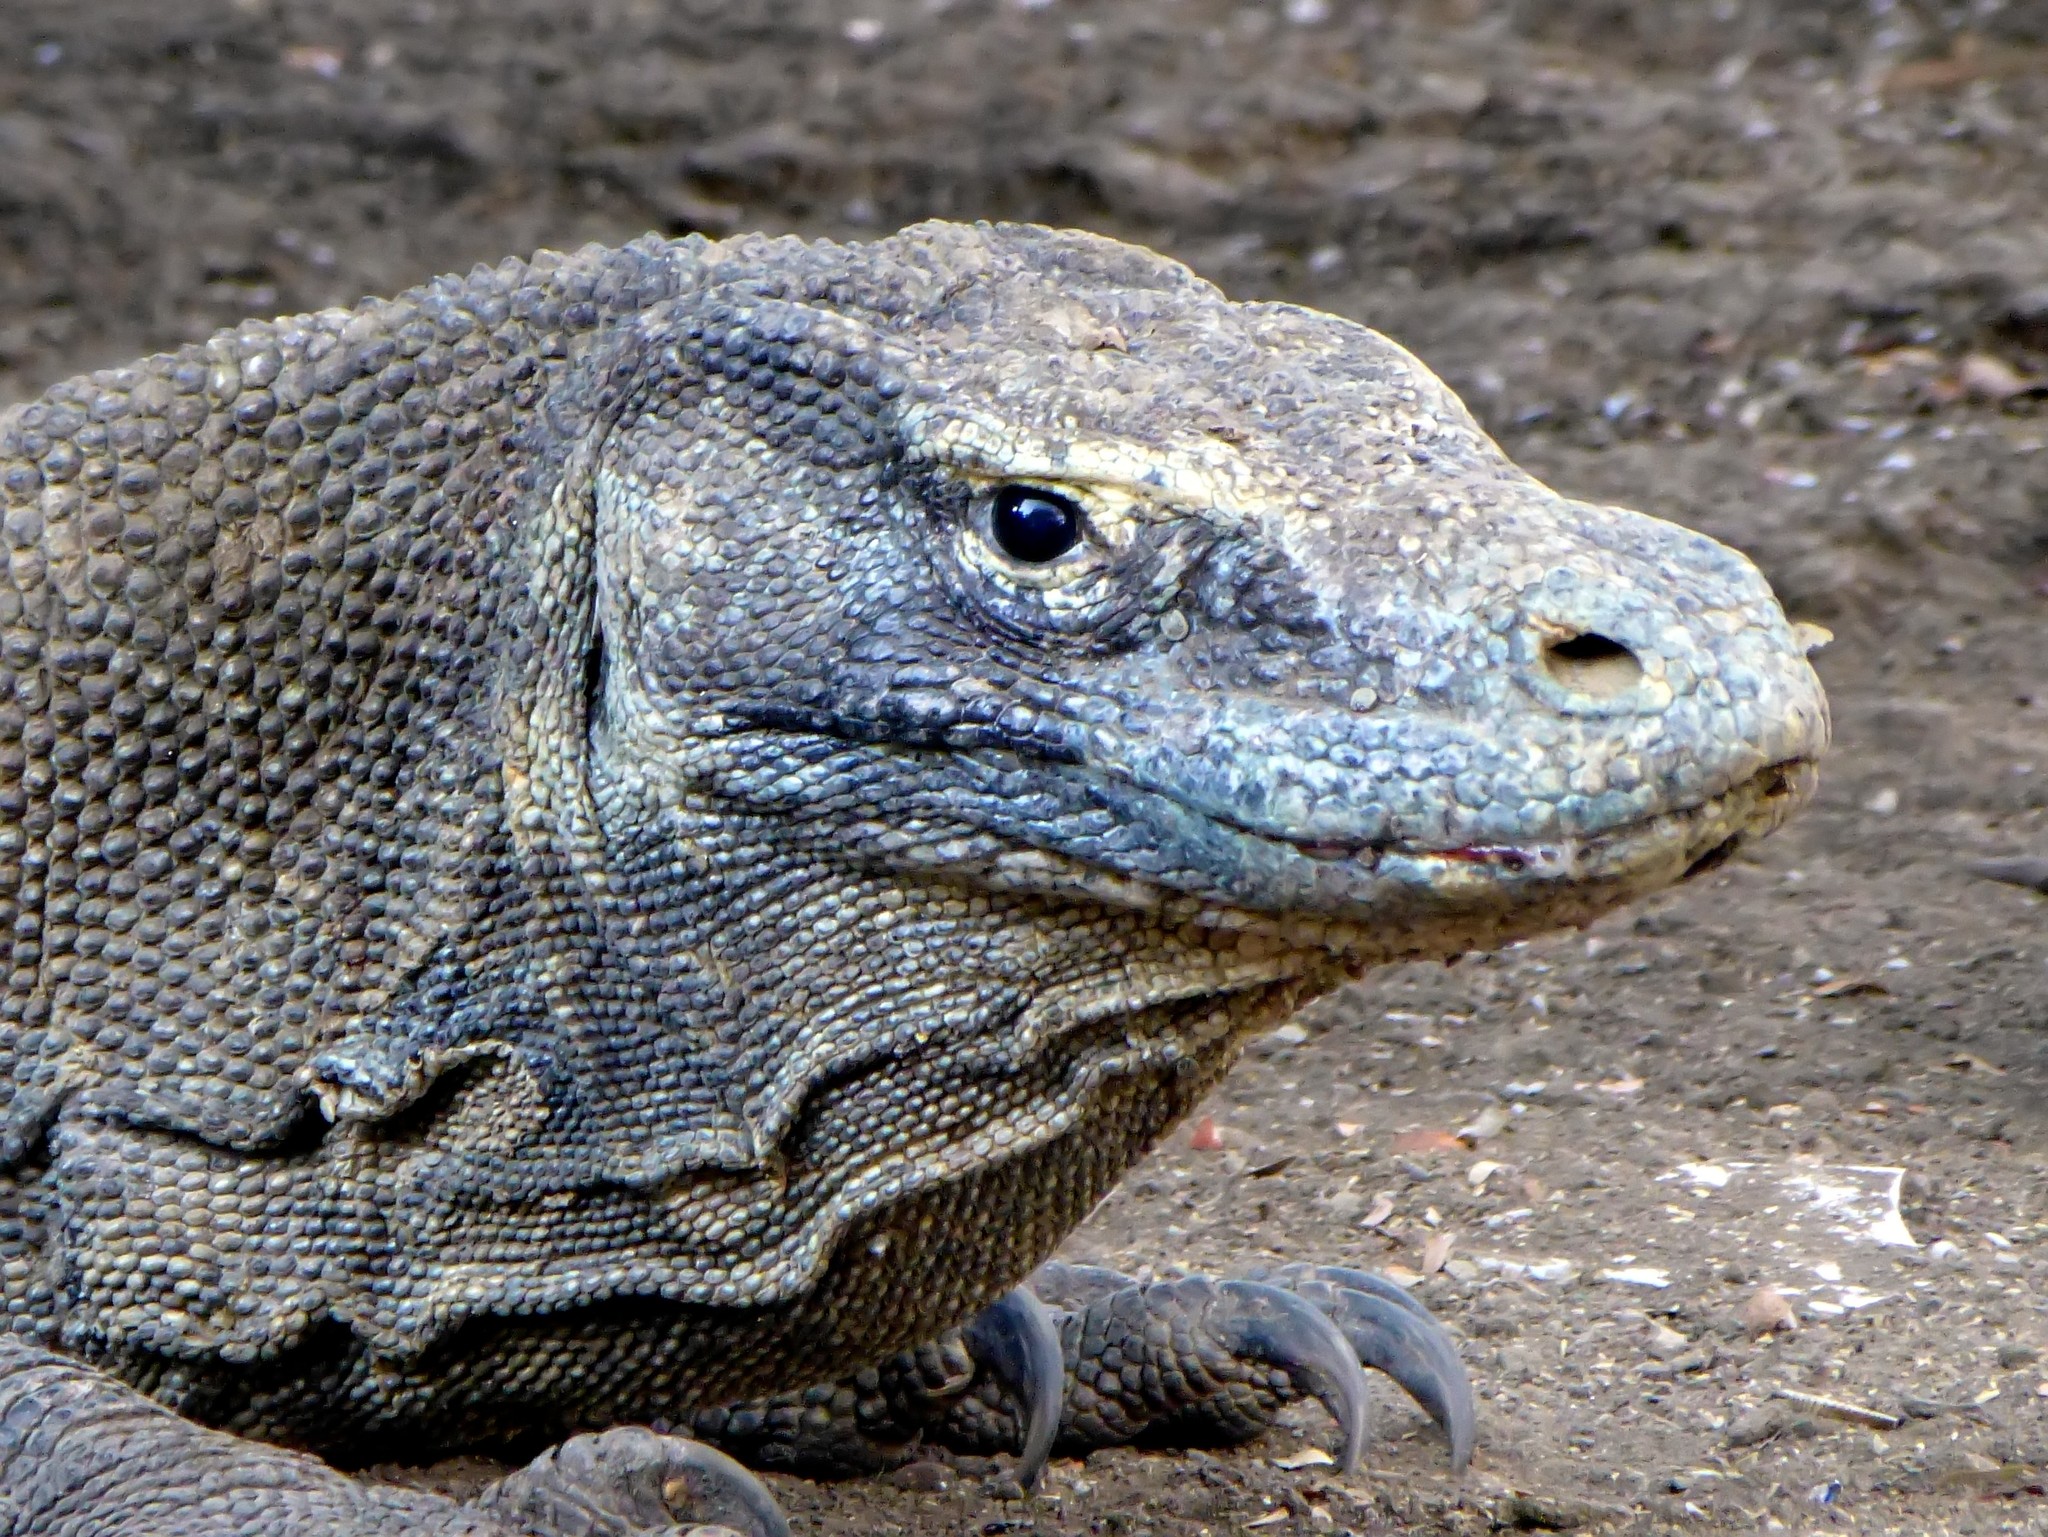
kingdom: Animalia
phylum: Chordata
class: Squamata
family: Varanidae
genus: Varanus
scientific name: Varanus komodoensis
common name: Komodo dragon
